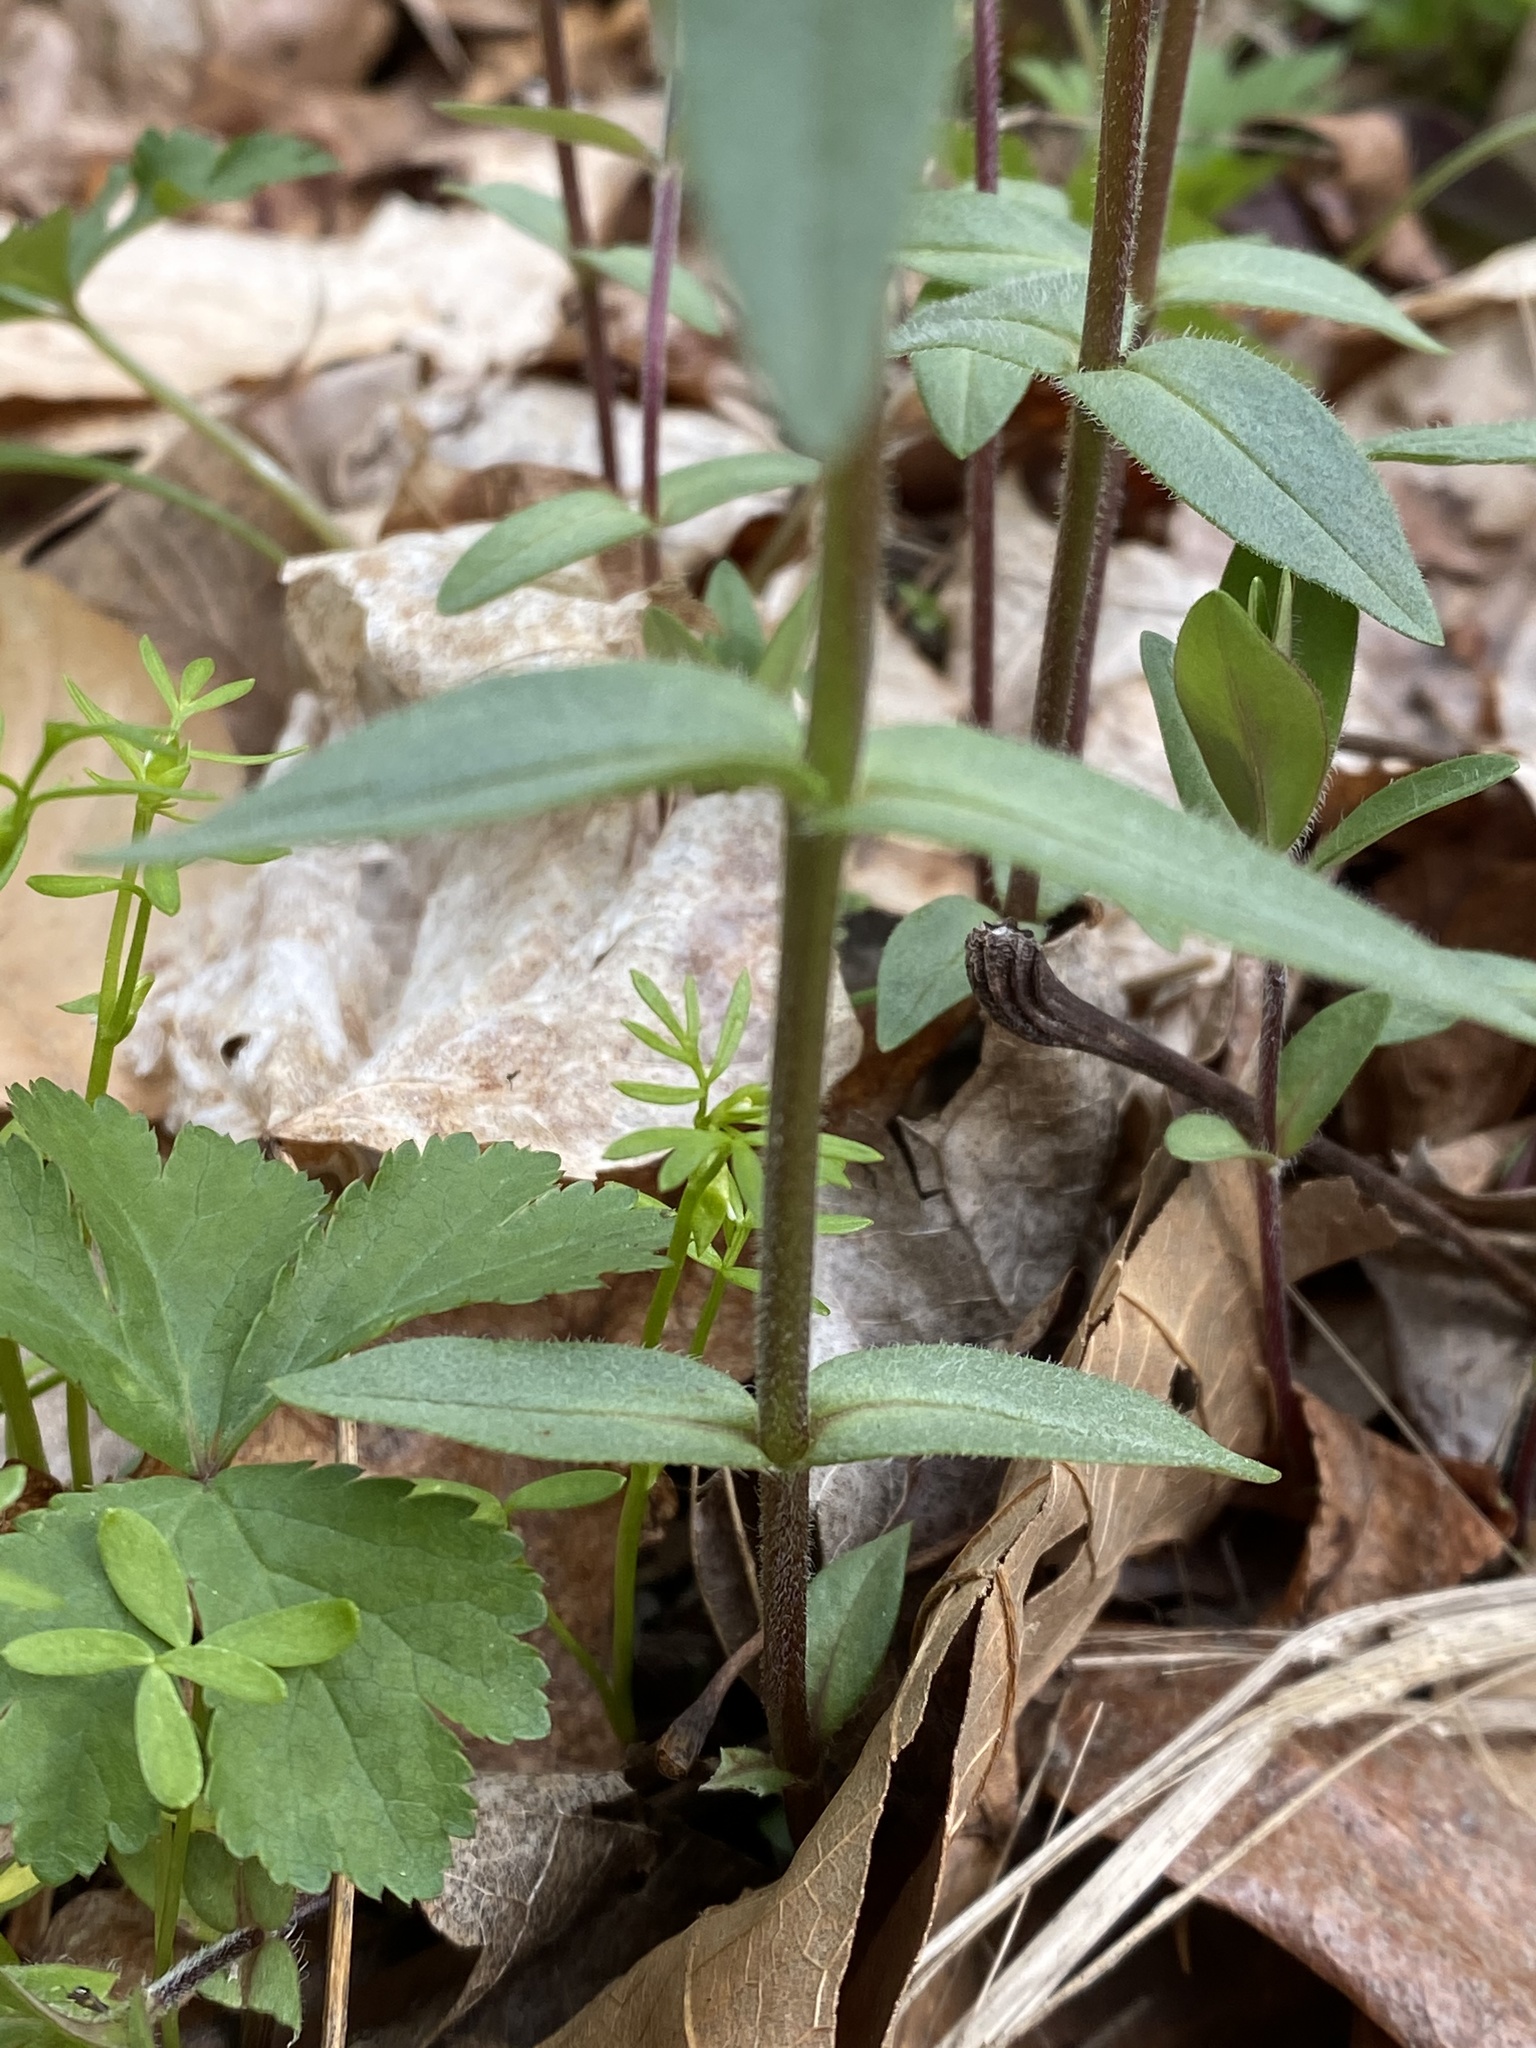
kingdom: Plantae
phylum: Tracheophyta
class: Magnoliopsida
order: Ericales
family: Polemoniaceae
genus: Phlox
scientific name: Phlox divaricata
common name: Blue phlox
